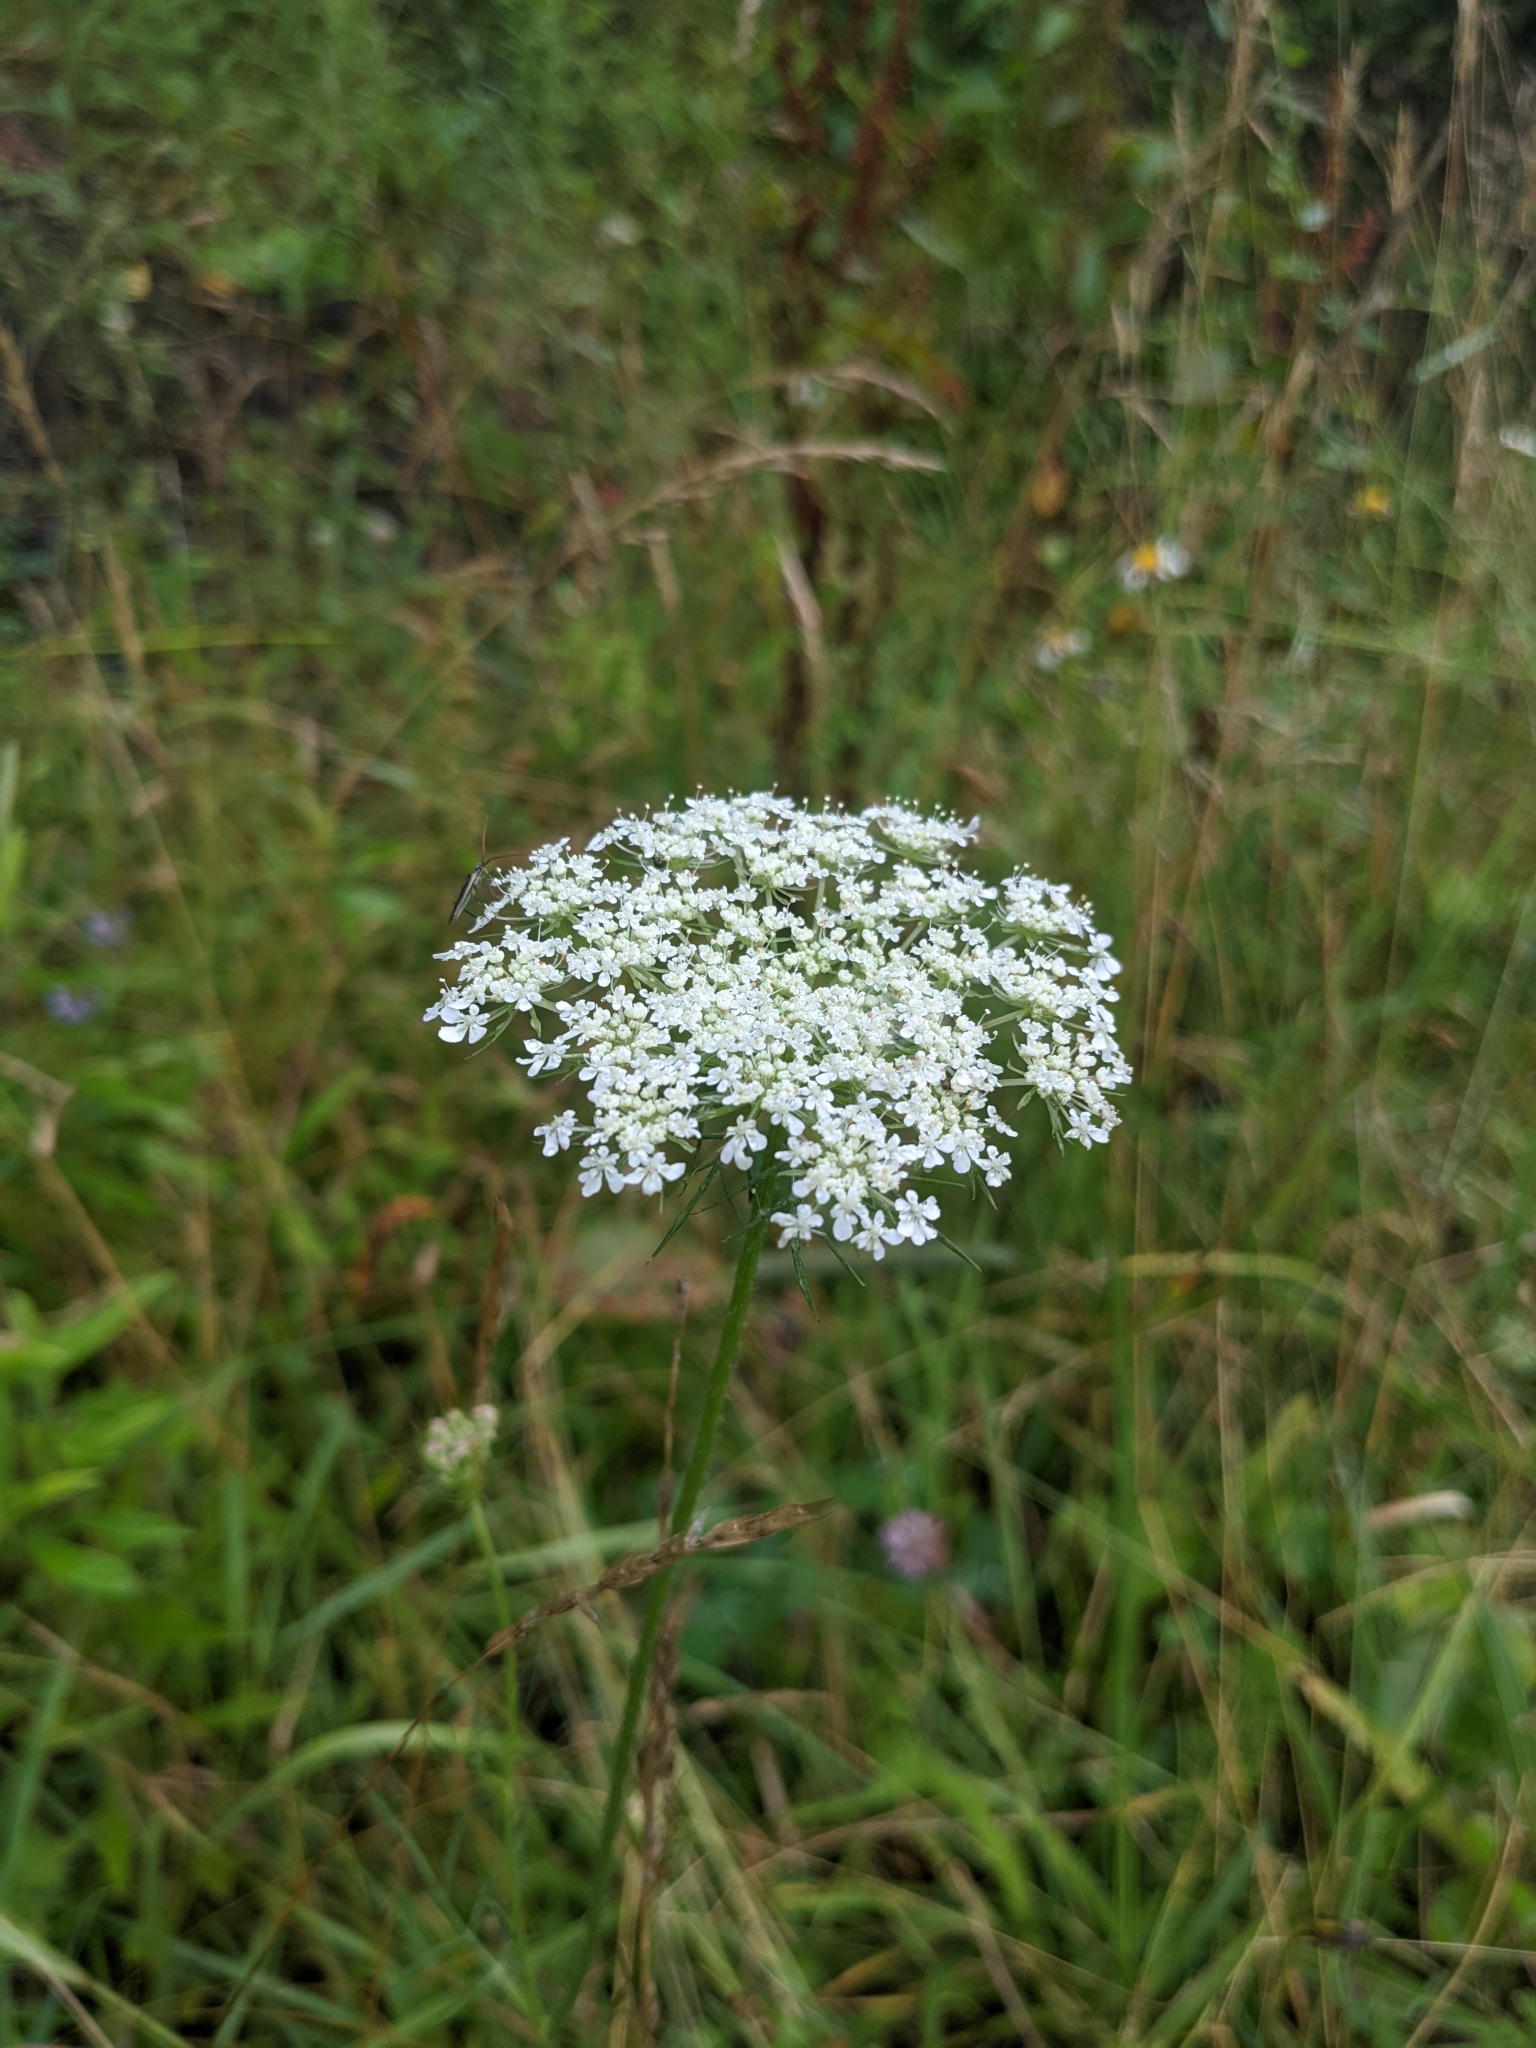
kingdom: Plantae
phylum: Tracheophyta
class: Magnoliopsida
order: Apiales
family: Apiaceae
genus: Daucus
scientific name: Daucus carota
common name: Wild carrot
